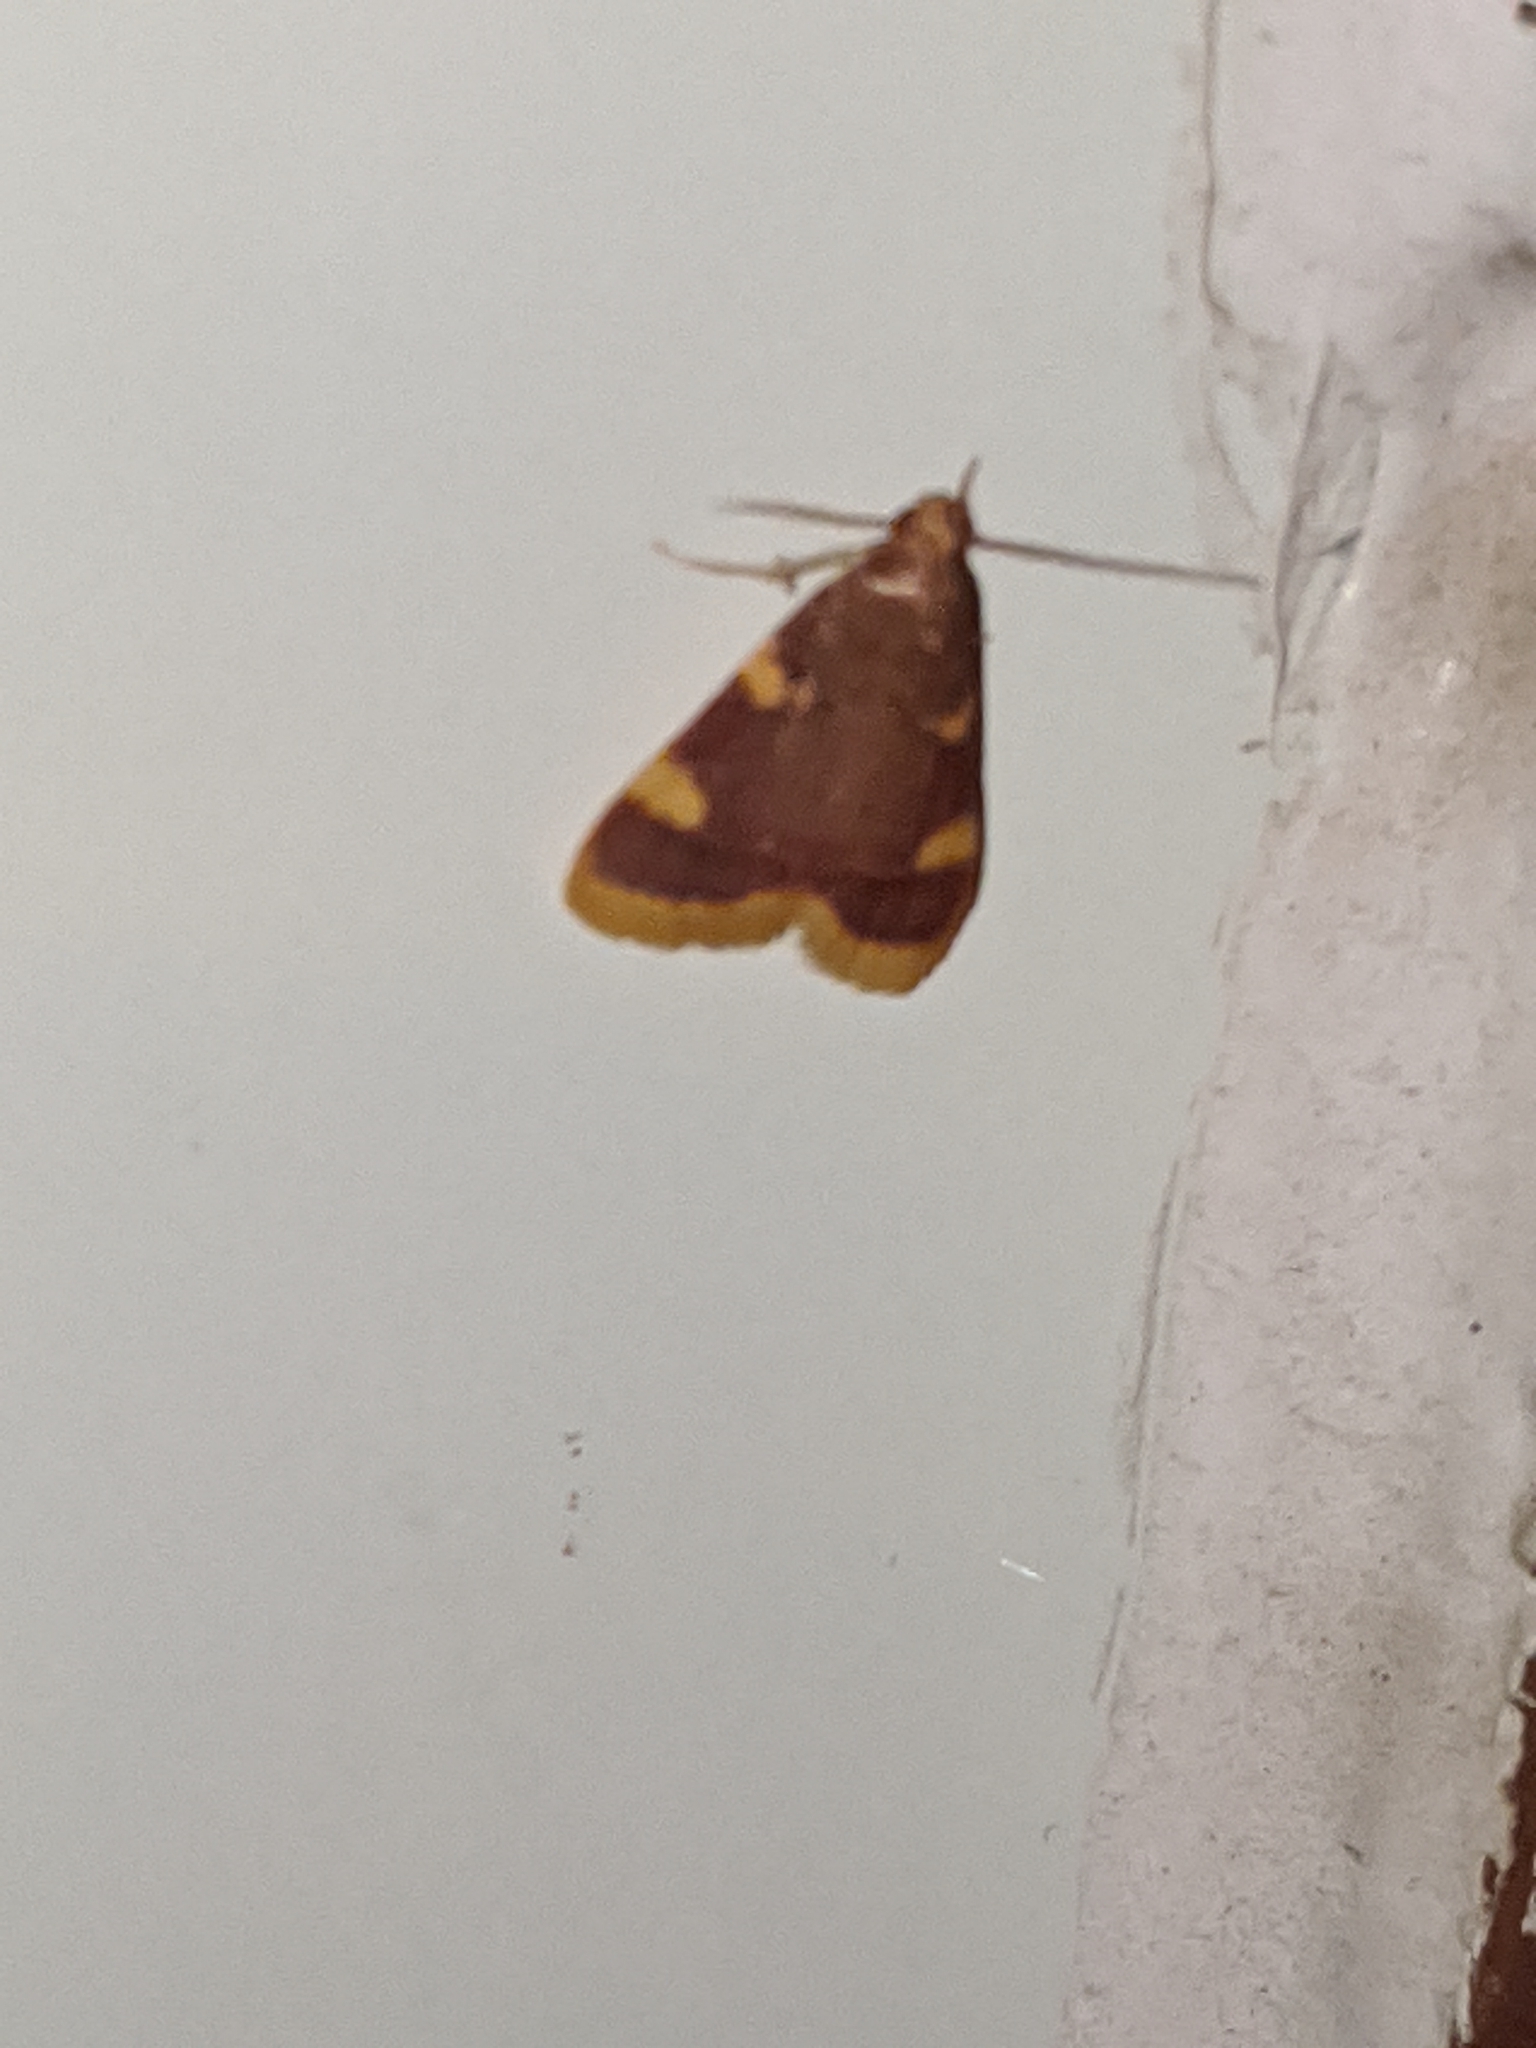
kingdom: Animalia
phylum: Arthropoda
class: Insecta
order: Lepidoptera
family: Pyralidae
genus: Hypsopygia
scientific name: Hypsopygia costalis
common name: Gold triangle
